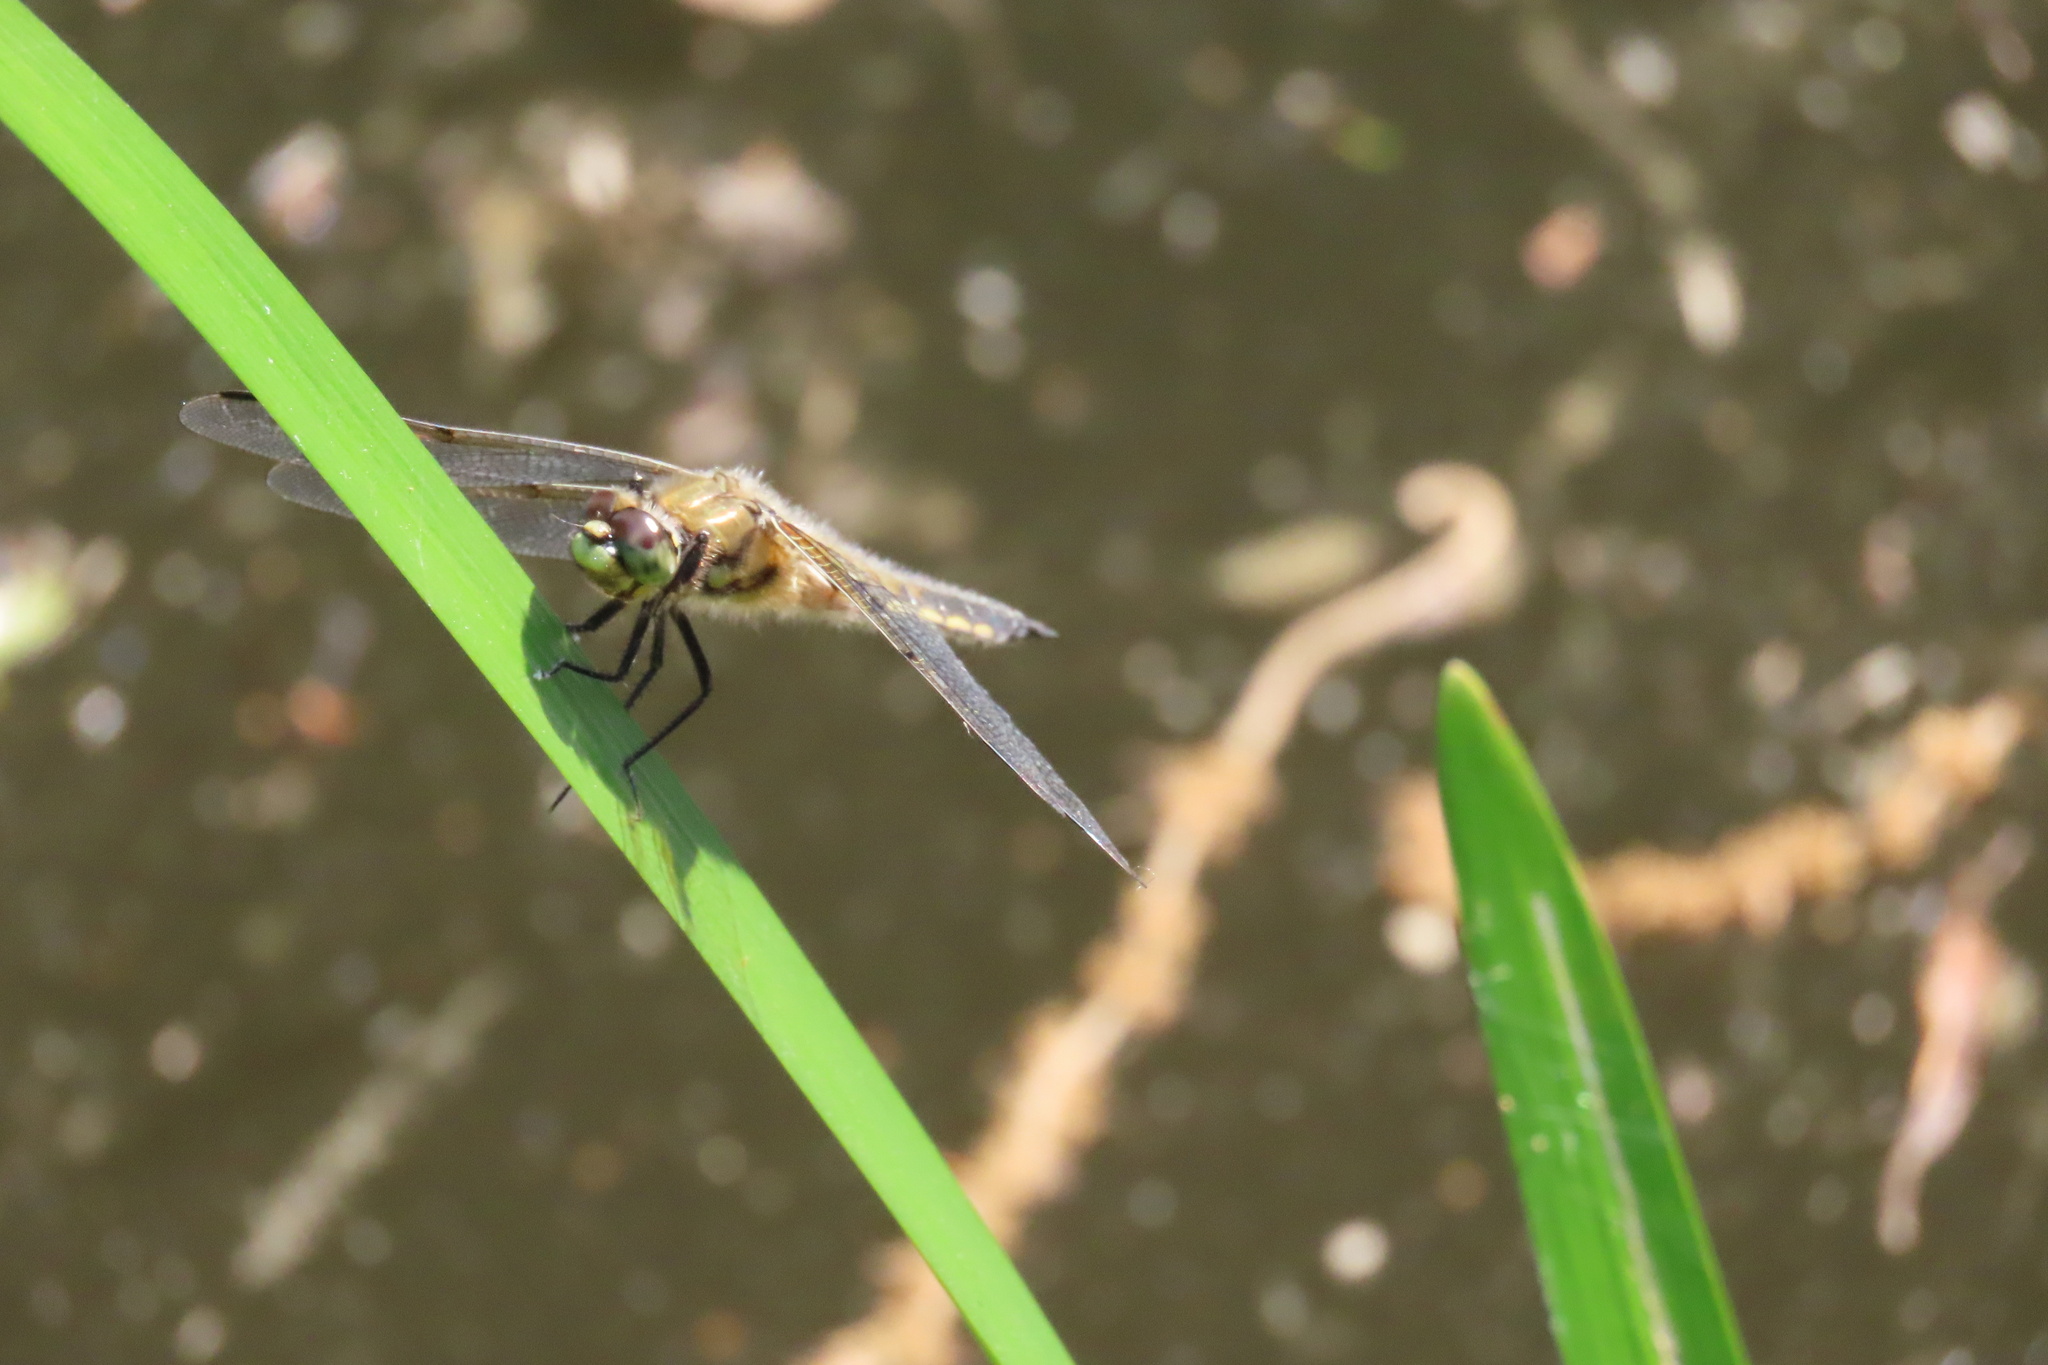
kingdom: Animalia
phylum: Arthropoda
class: Insecta
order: Odonata
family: Libellulidae
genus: Libellula
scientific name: Libellula quadrimaculata
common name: Four-spotted chaser
